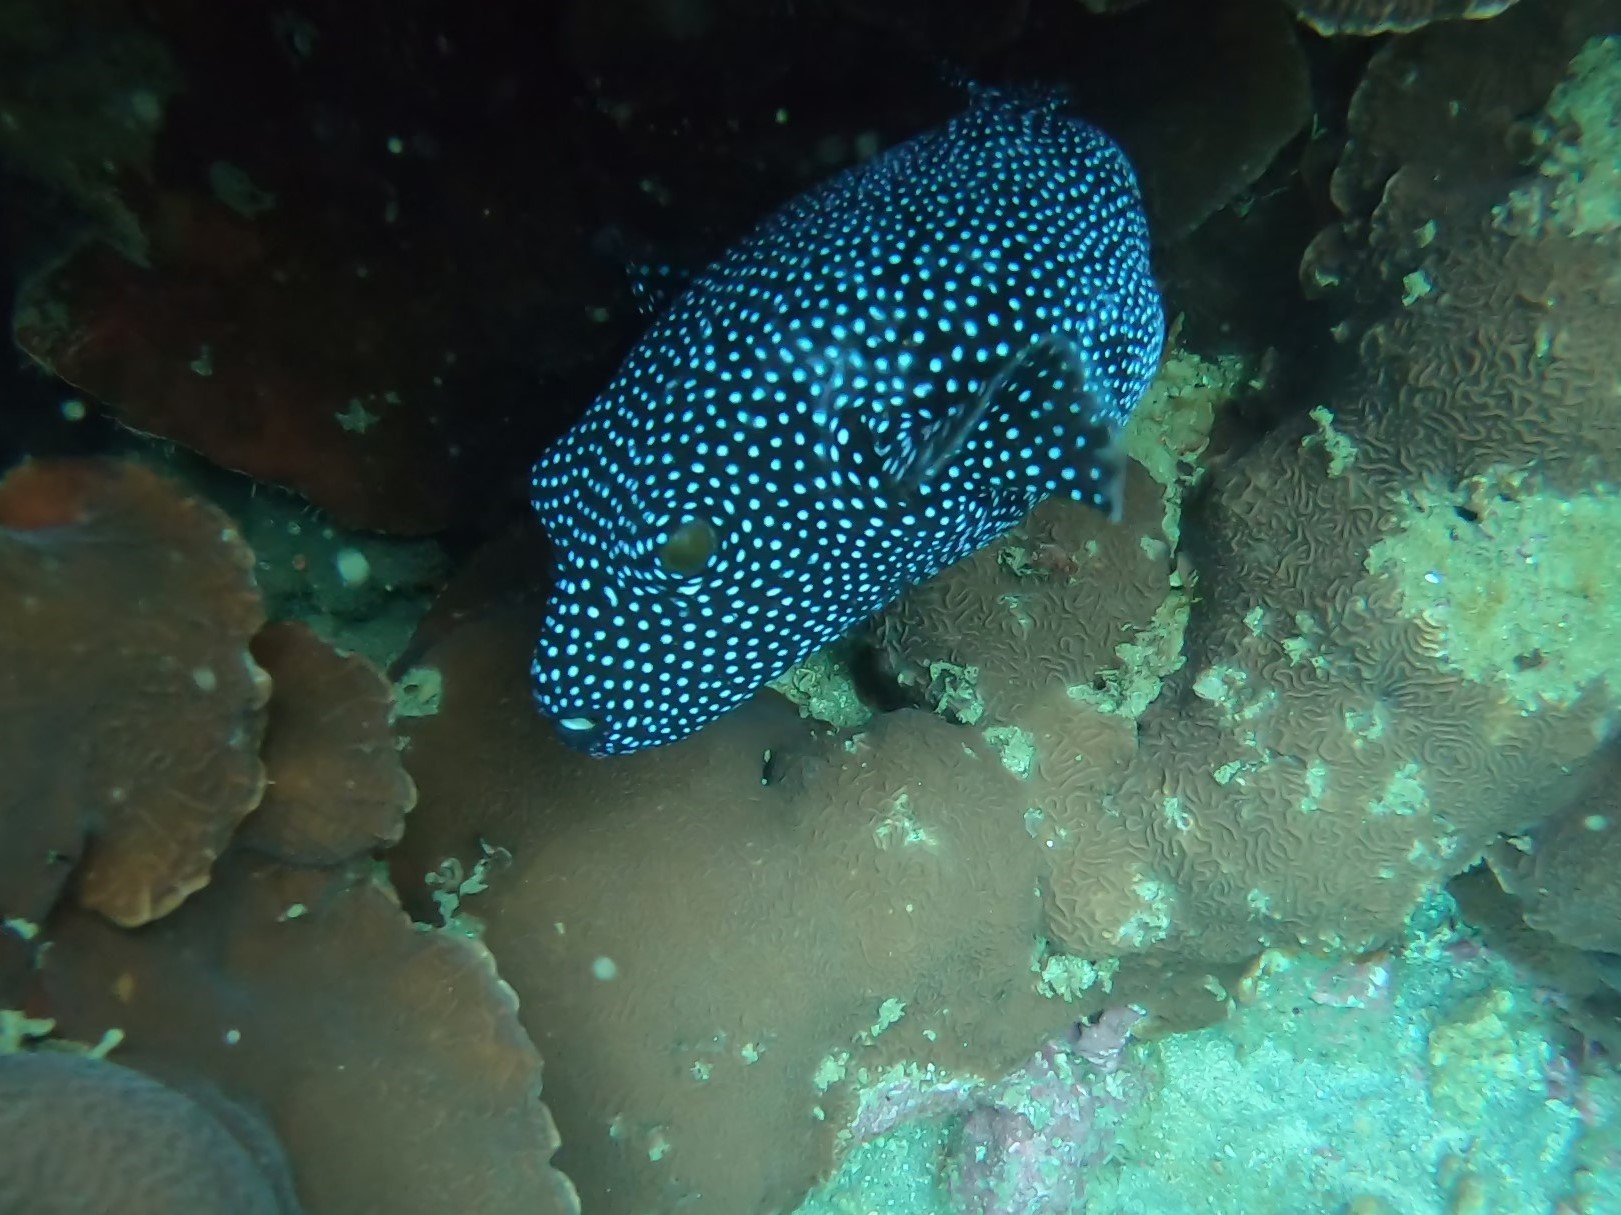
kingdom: Animalia
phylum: Chordata
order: Tetraodontiformes
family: Tetraodontidae
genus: Arothron
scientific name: Arothron meleagris
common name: Guinea-fowl pufferfish
